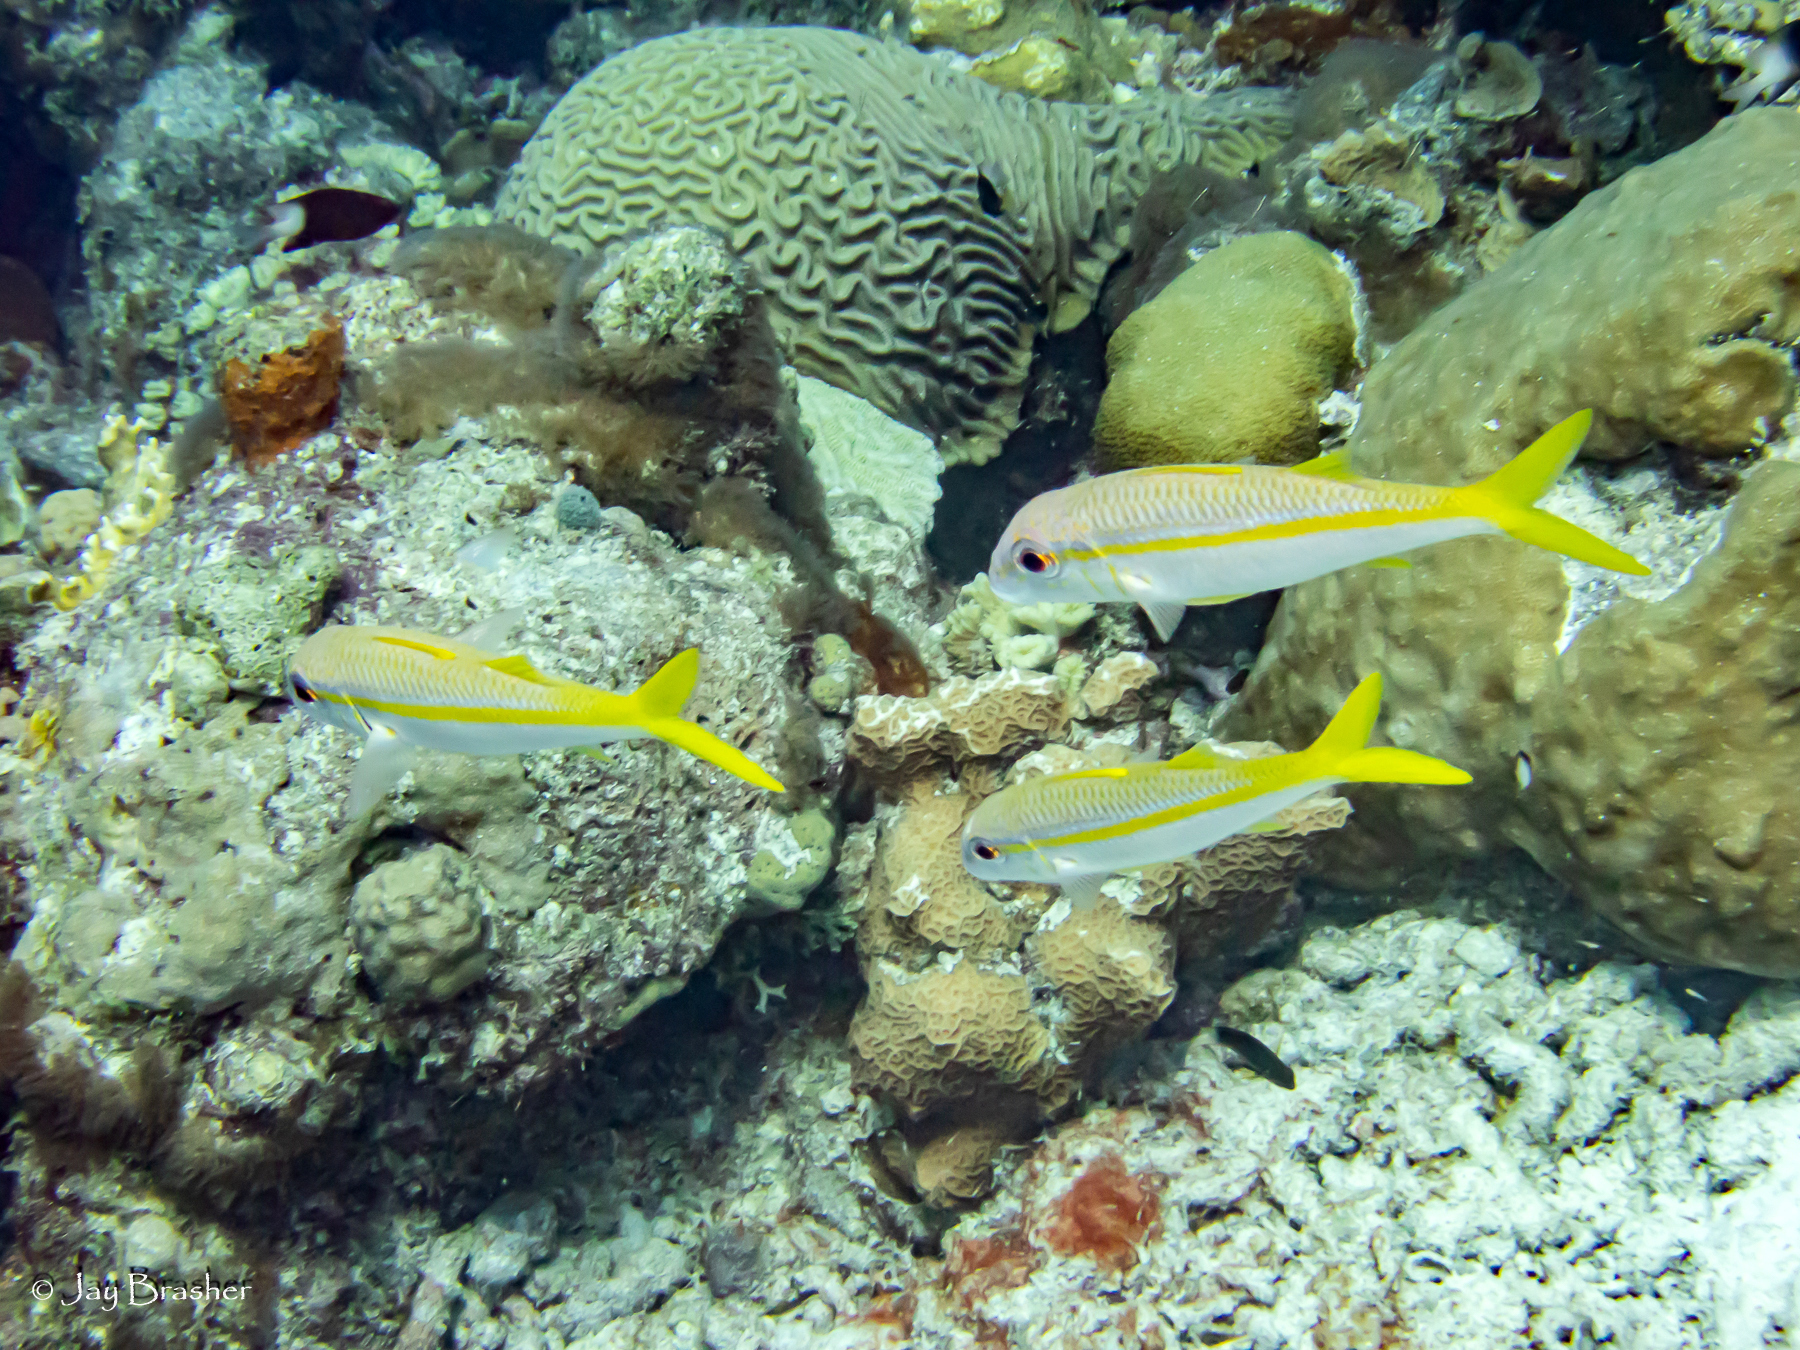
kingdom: Animalia
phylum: Chordata
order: Perciformes
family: Mullidae
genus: Mulloidichthys
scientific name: Mulloidichthys martinicus
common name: Yellow goatfish
